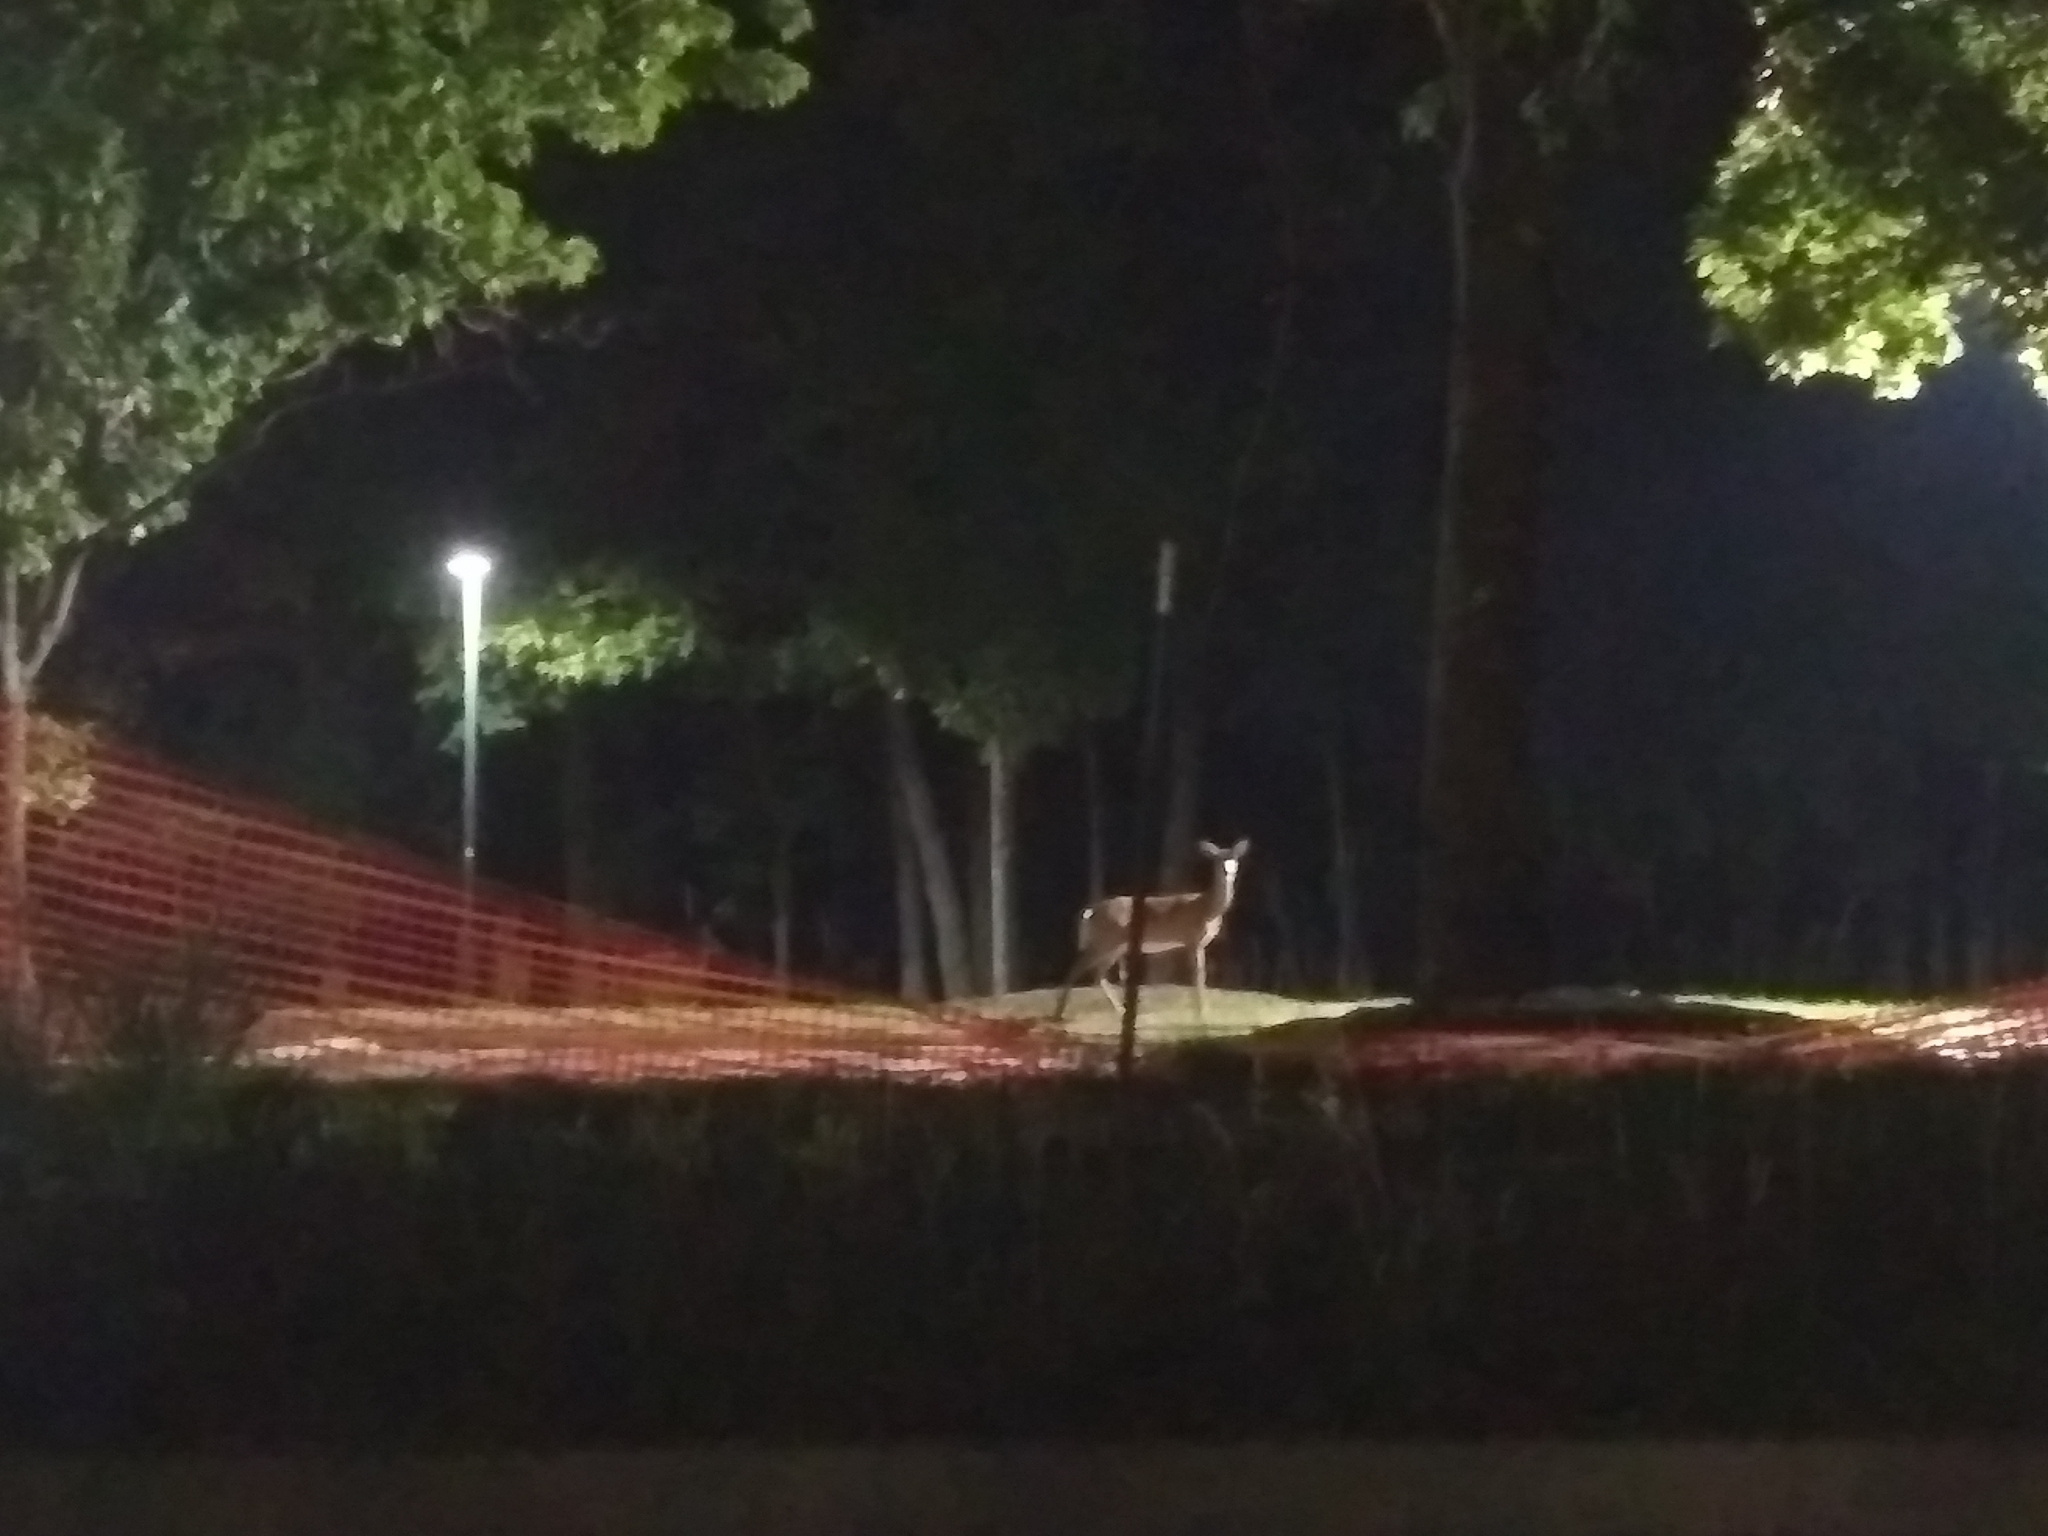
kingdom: Animalia
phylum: Chordata
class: Mammalia
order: Artiodactyla
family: Cervidae
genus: Odocoileus
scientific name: Odocoileus virginianus
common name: White-tailed deer
